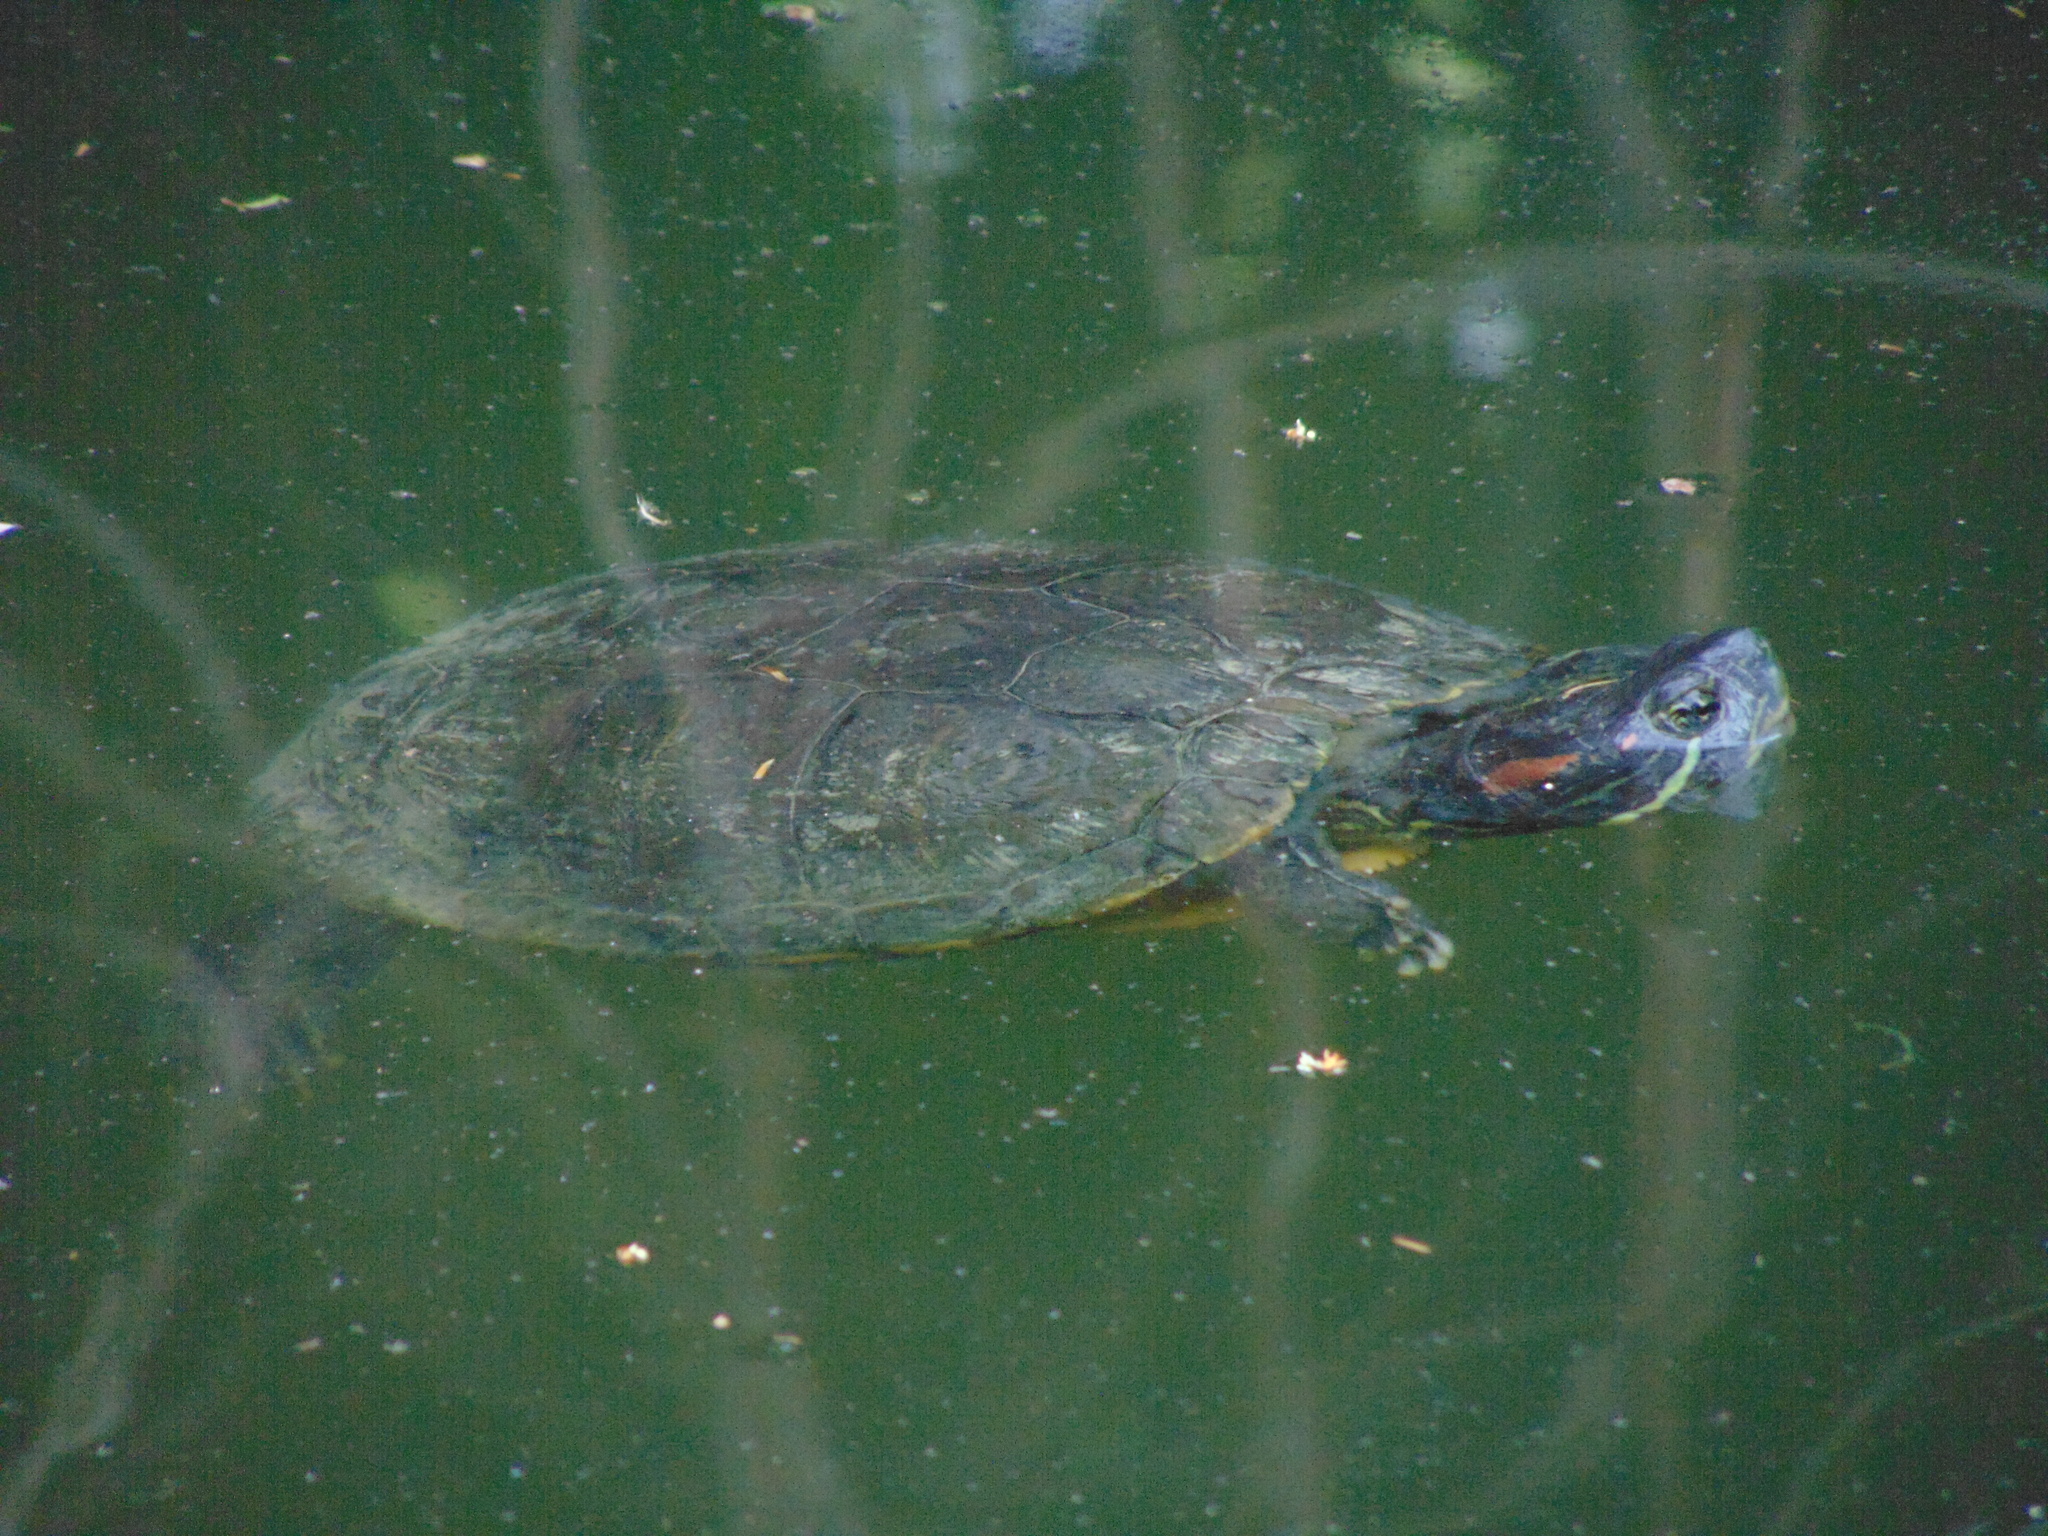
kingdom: Animalia
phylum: Chordata
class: Testudines
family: Emydidae
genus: Trachemys
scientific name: Trachemys scripta
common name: Slider
